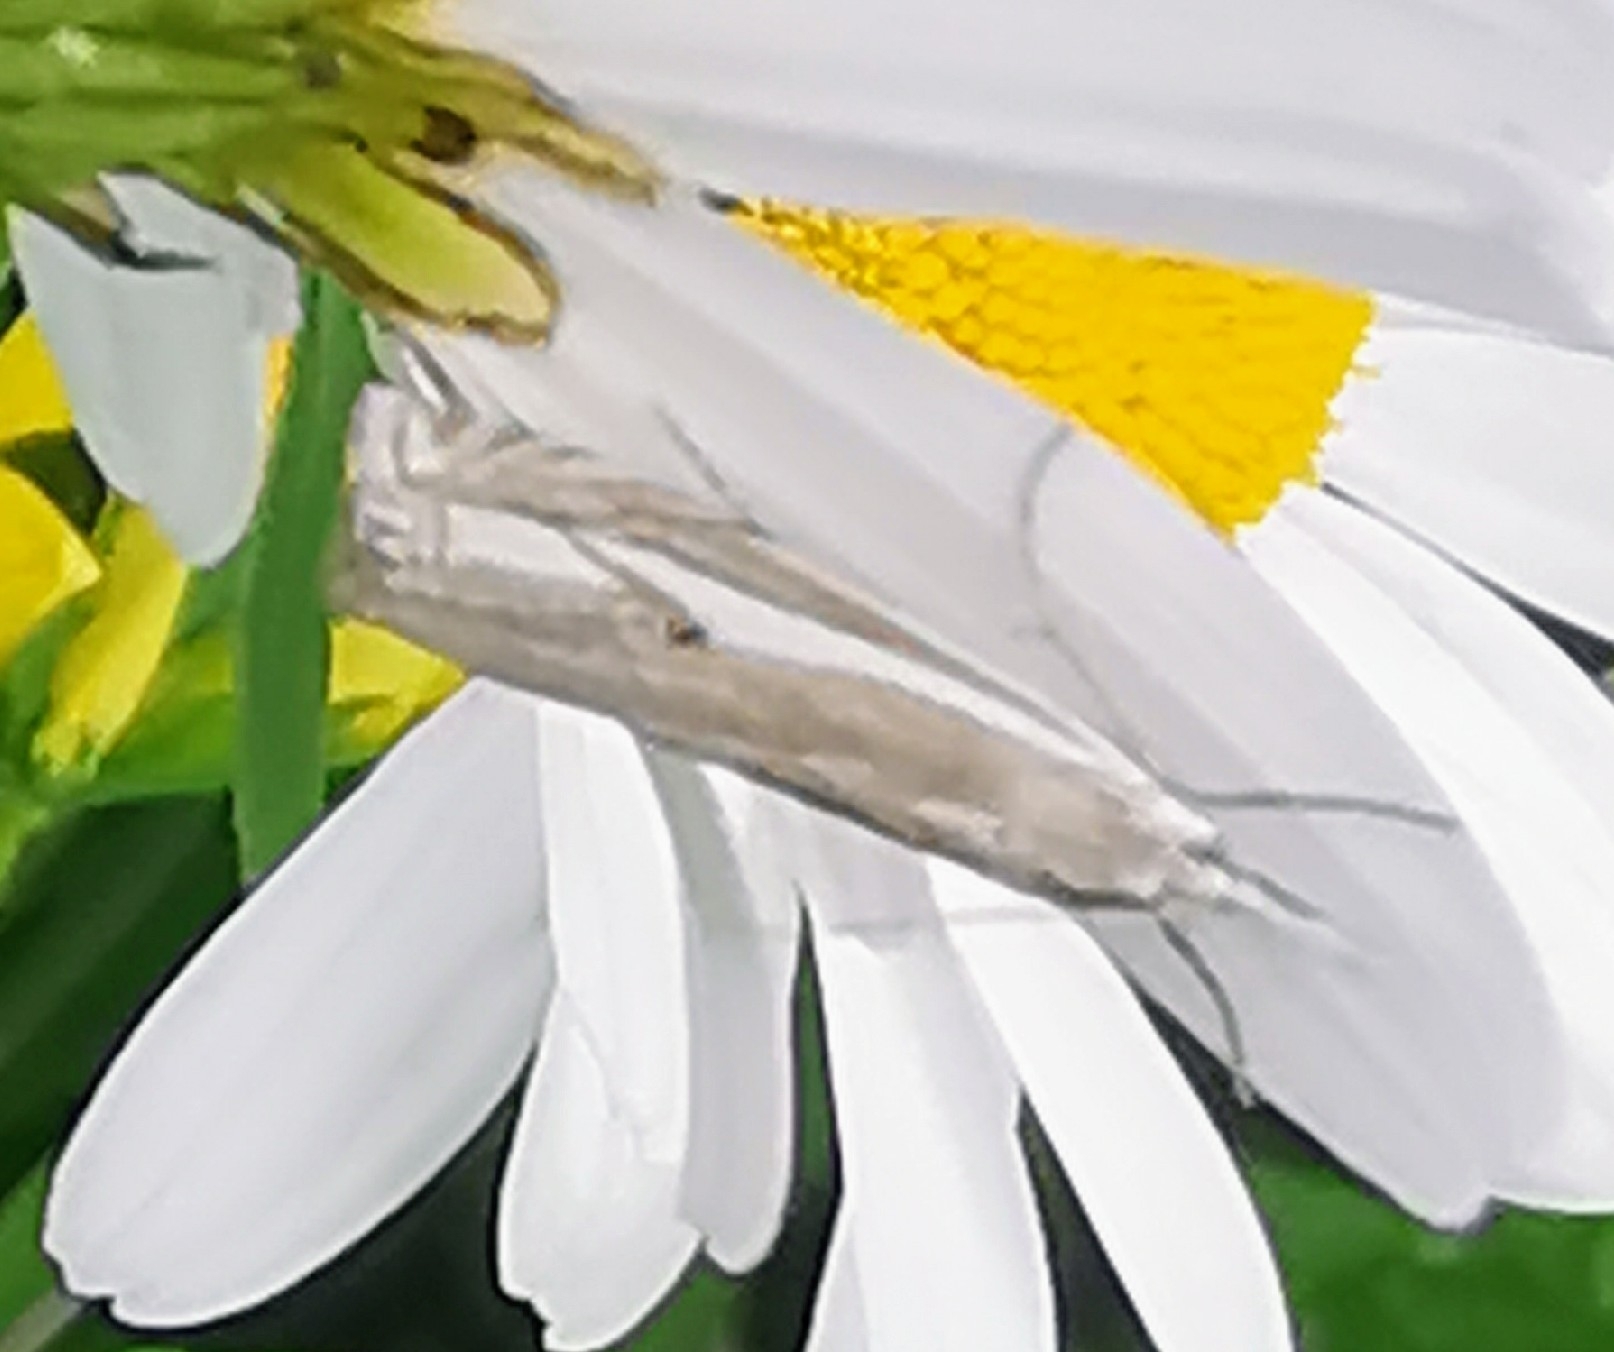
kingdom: Animalia
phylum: Arthropoda
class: Insecta
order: Lepidoptera
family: Crambidae
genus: Crambus
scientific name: Crambus nemorella
